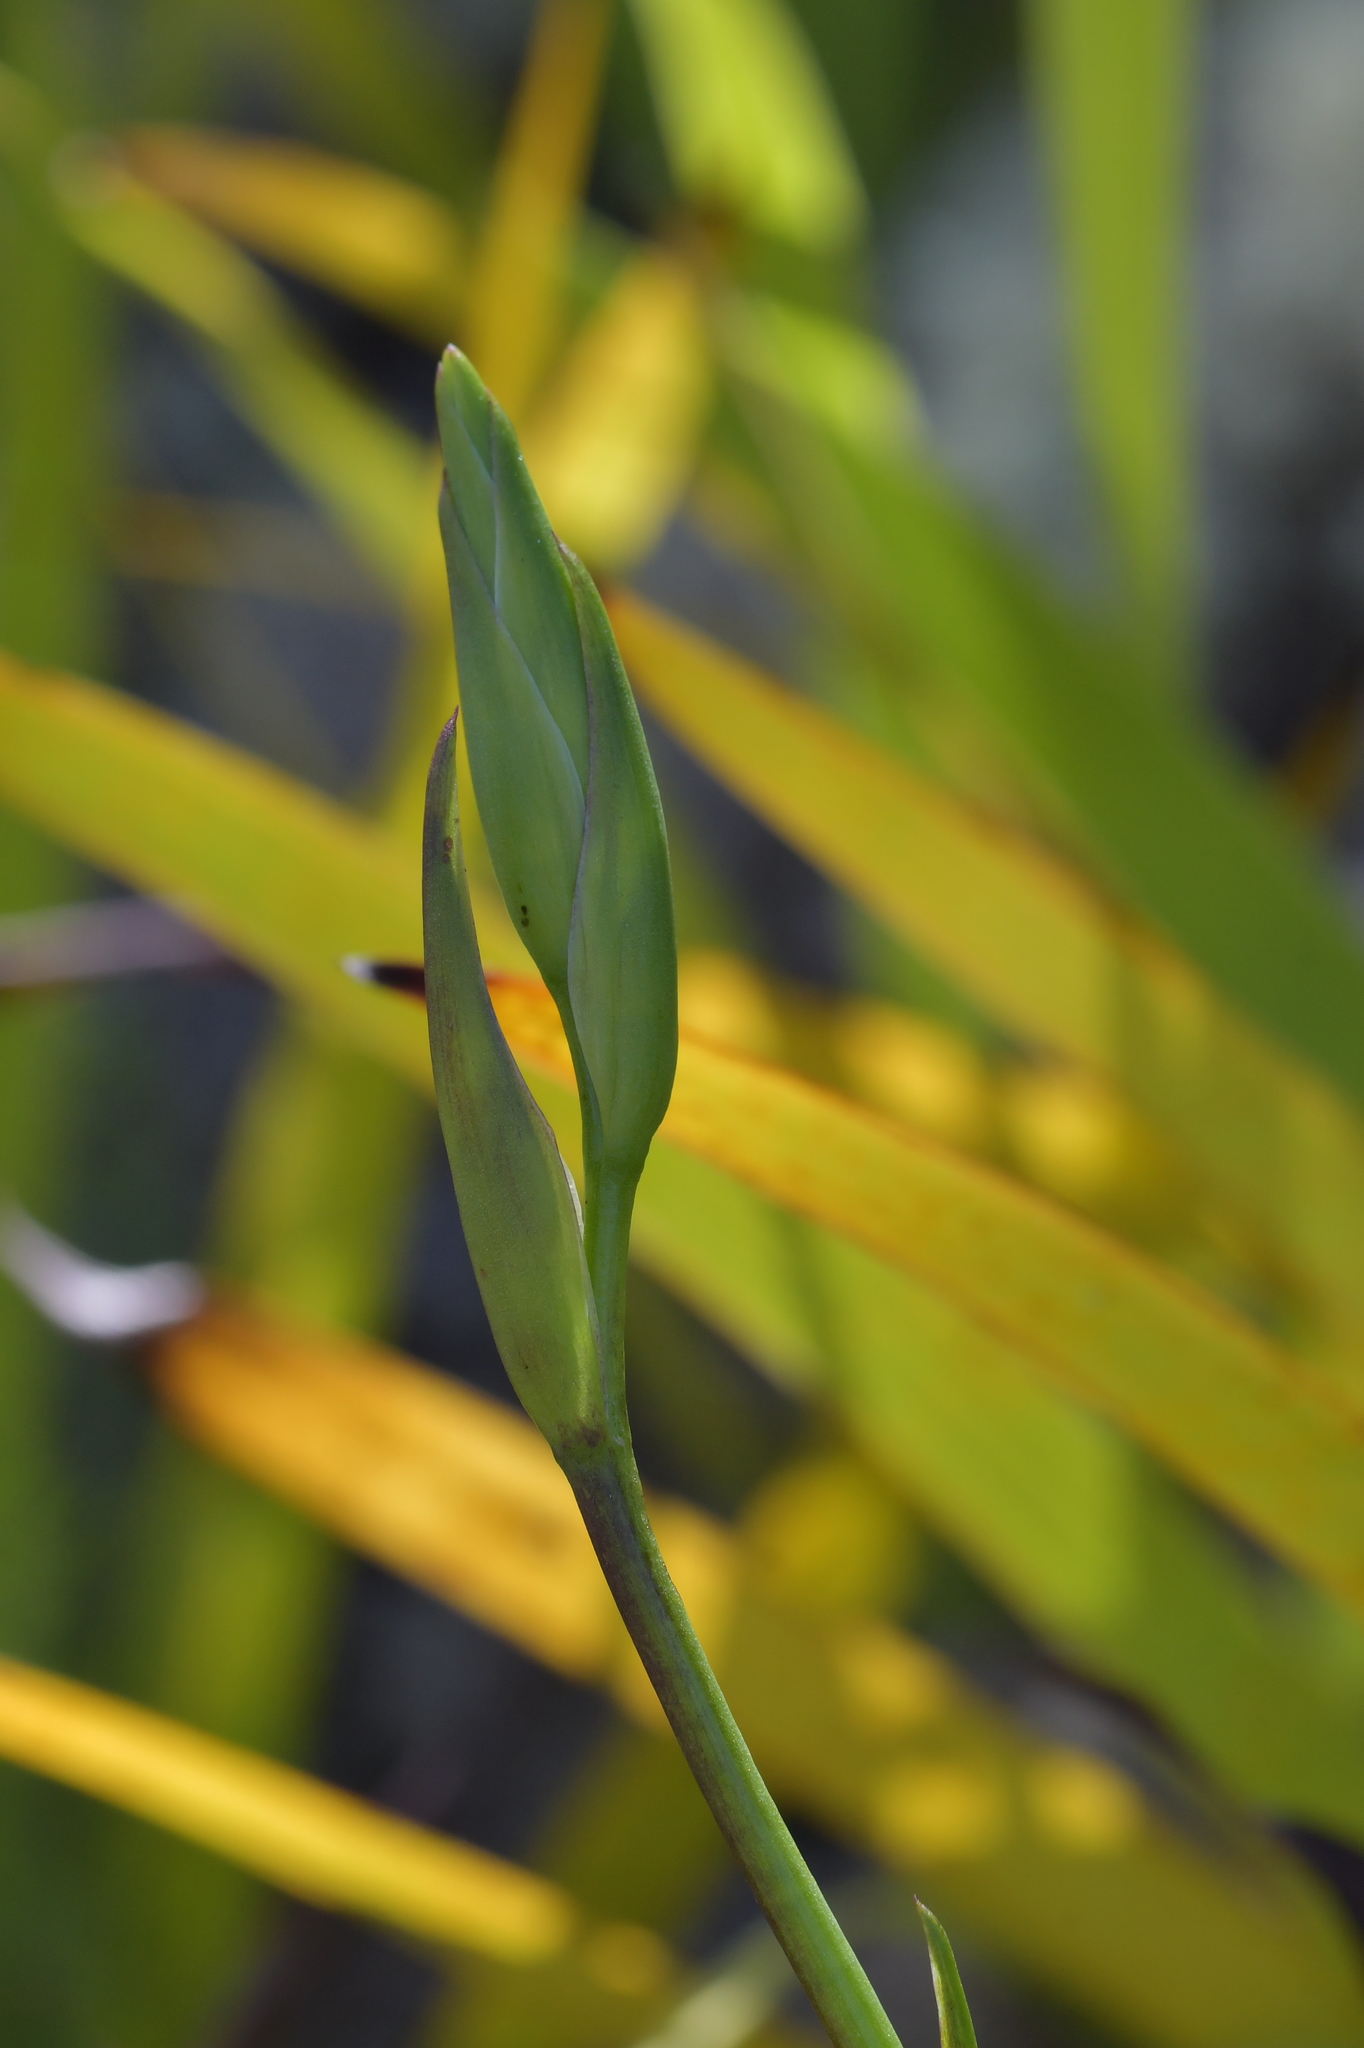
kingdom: Plantae
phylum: Tracheophyta
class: Liliopsida
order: Asparagales
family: Orchidaceae
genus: Orthoceras
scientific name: Orthoceras novae-zeelandiae
